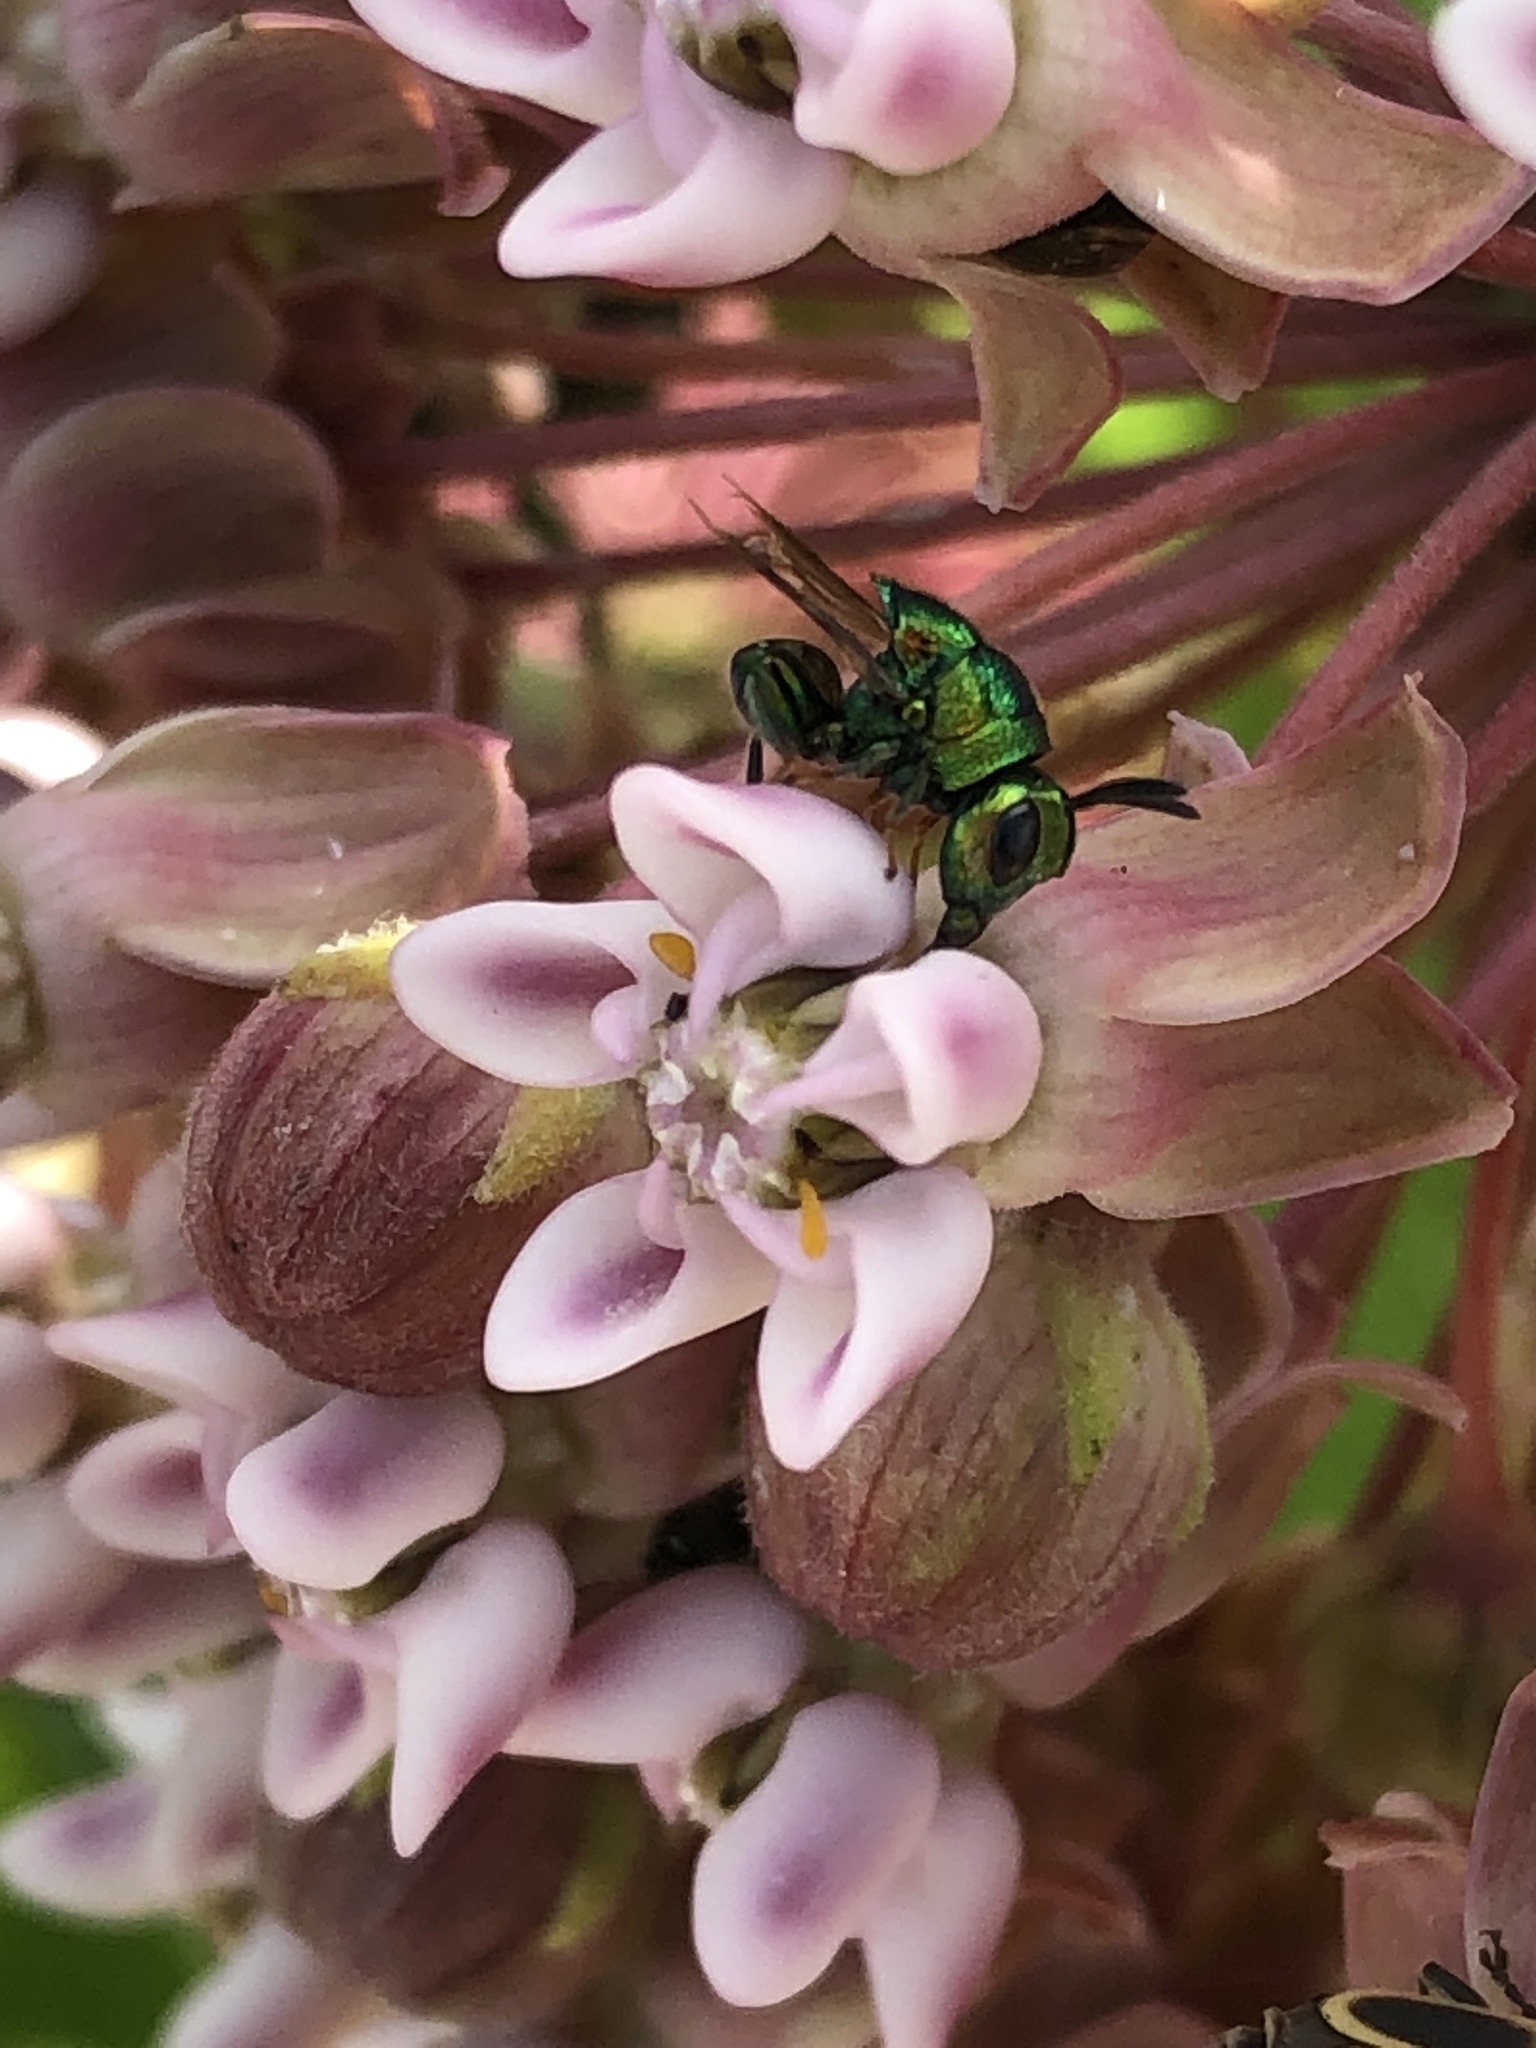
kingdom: Animalia
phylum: Arthropoda
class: Insecta
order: Hymenoptera
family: Perilampidae
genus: Euperilampus
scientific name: Euperilampus triangularis
